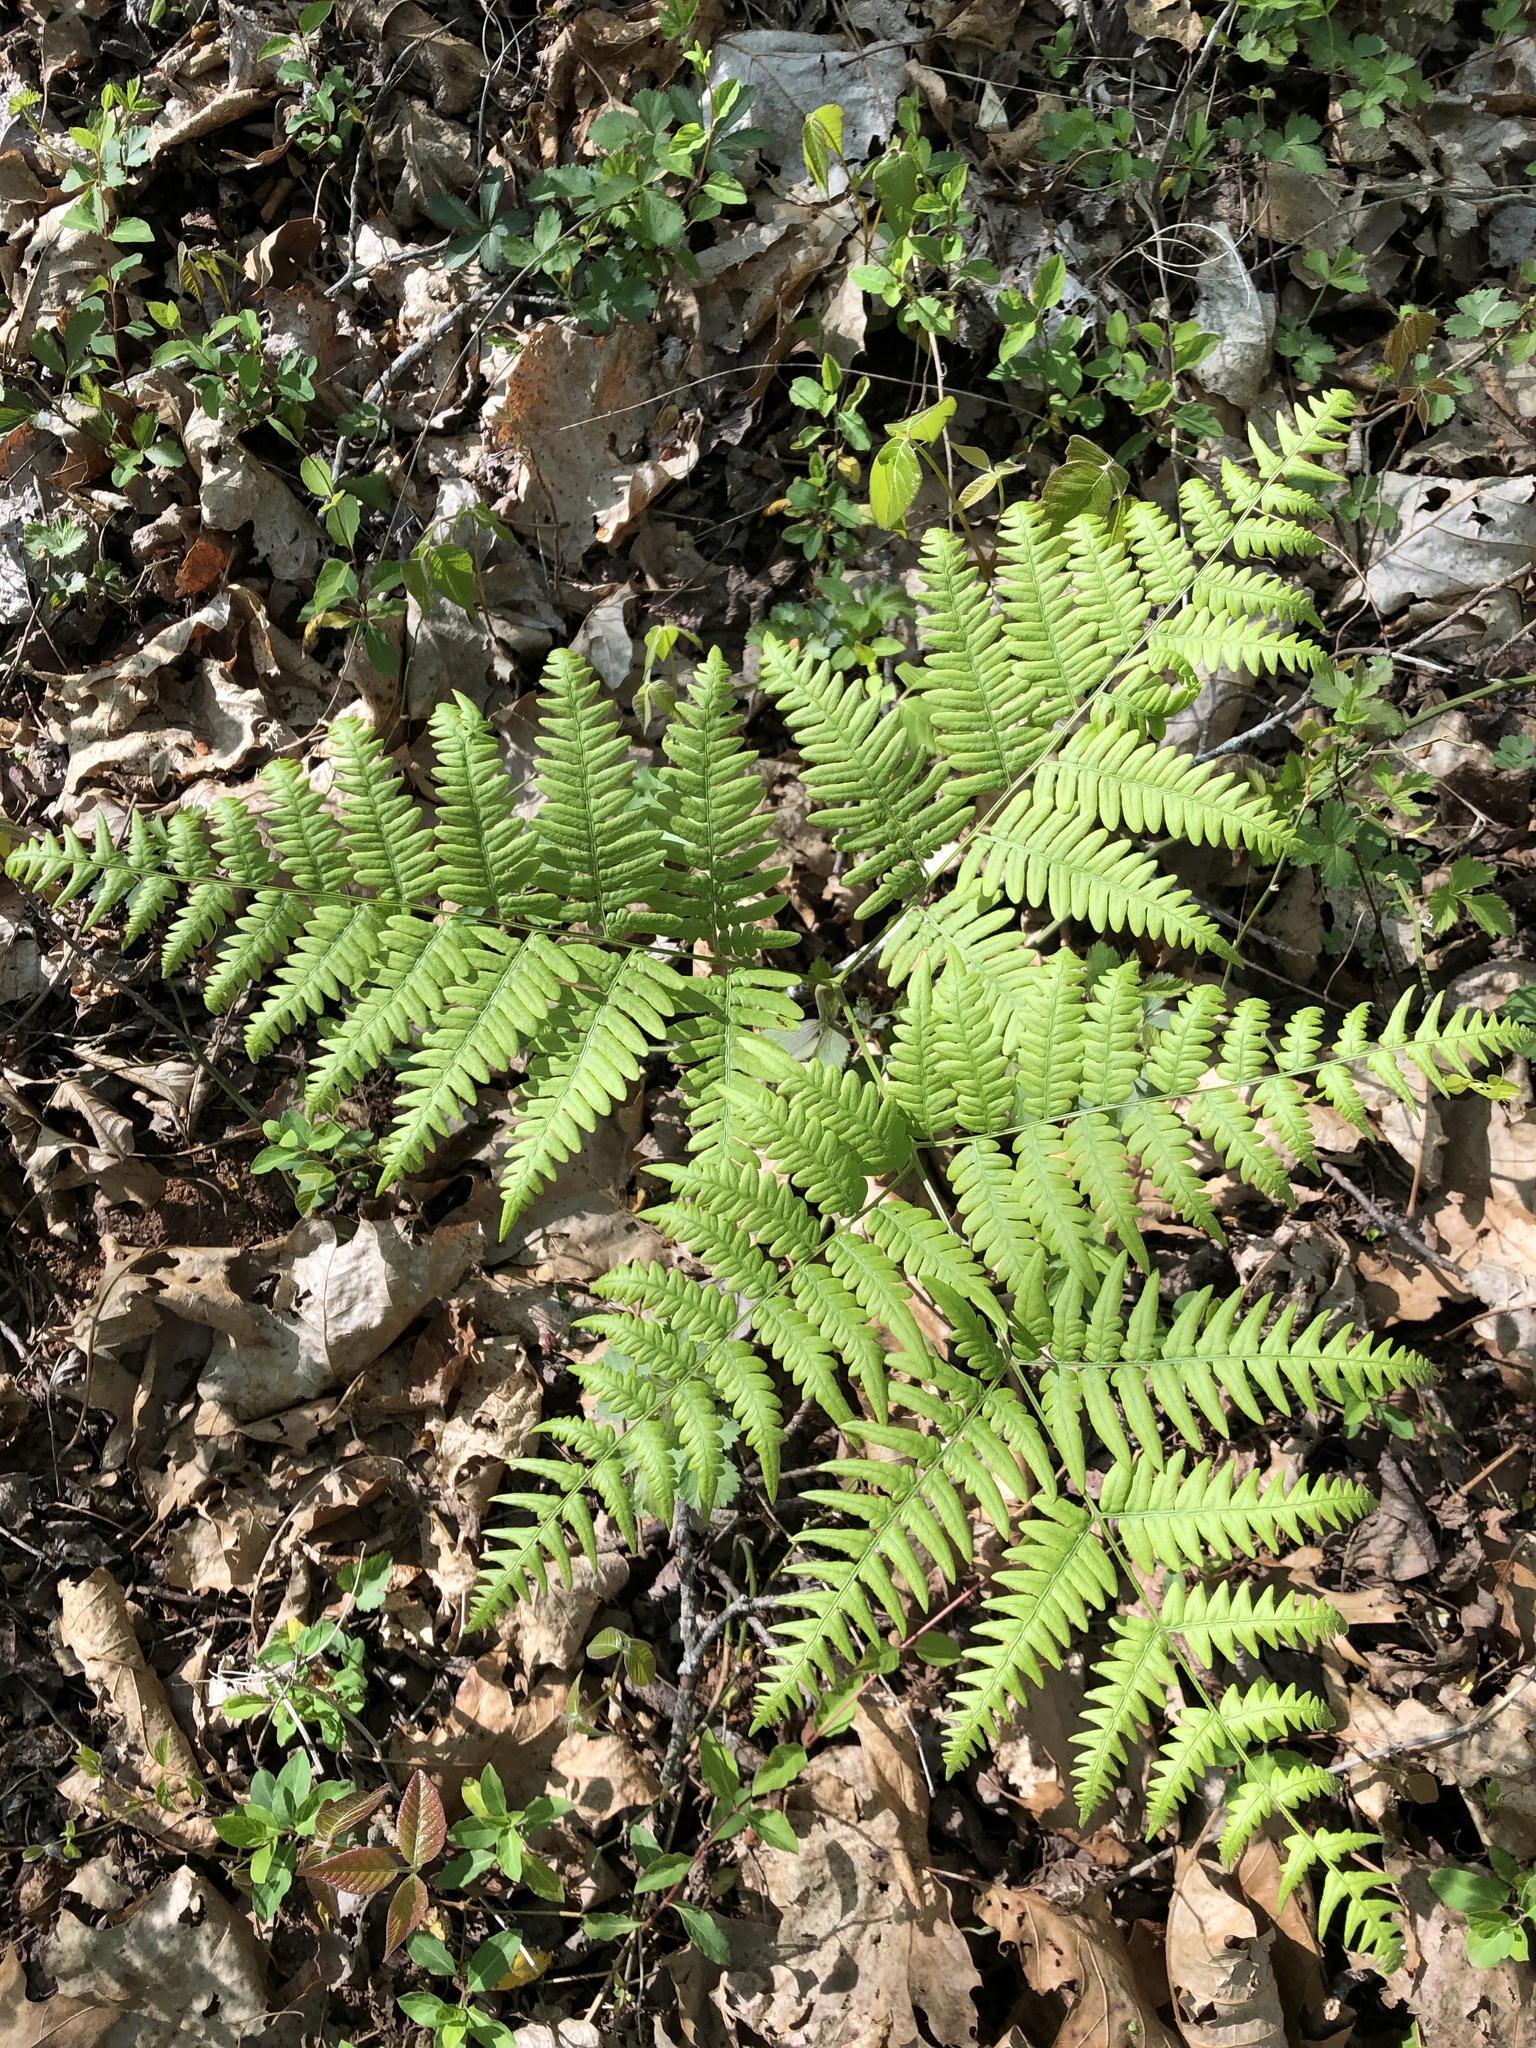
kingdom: Plantae
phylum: Tracheophyta
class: Polypodiopsida
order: Polypodiales
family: Dennstaedtiaceae
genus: Pteridium
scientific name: Pteridium aquilinum
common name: Bracken
